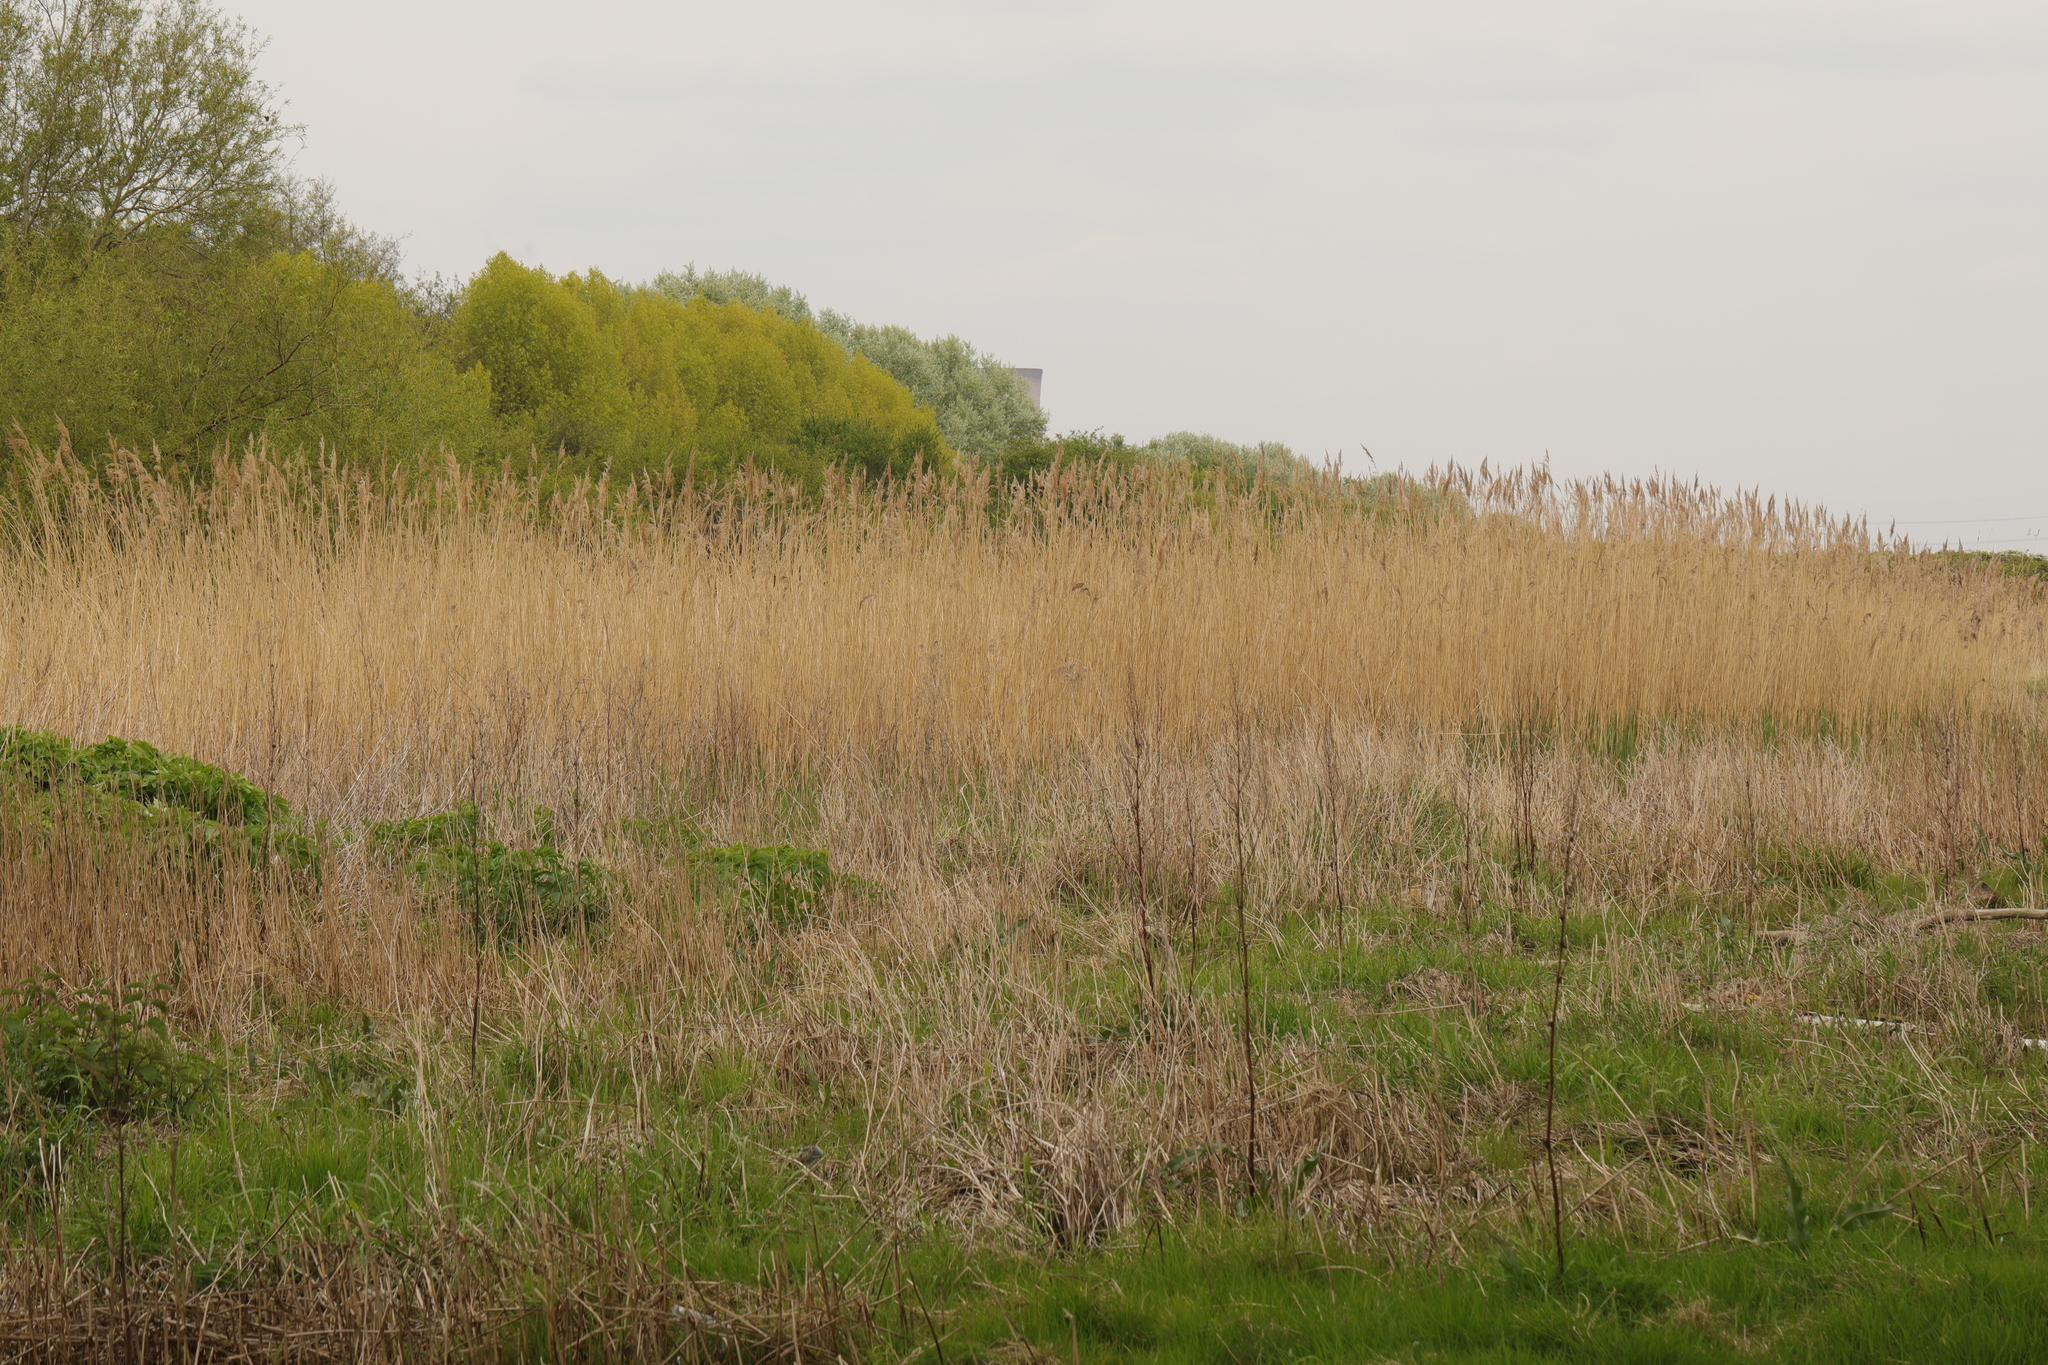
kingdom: Plantae
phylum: Tracheophyta
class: Liliopsida
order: Poales
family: Poaceae
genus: Phragmites
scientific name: Phragmites australis
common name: Common reed
